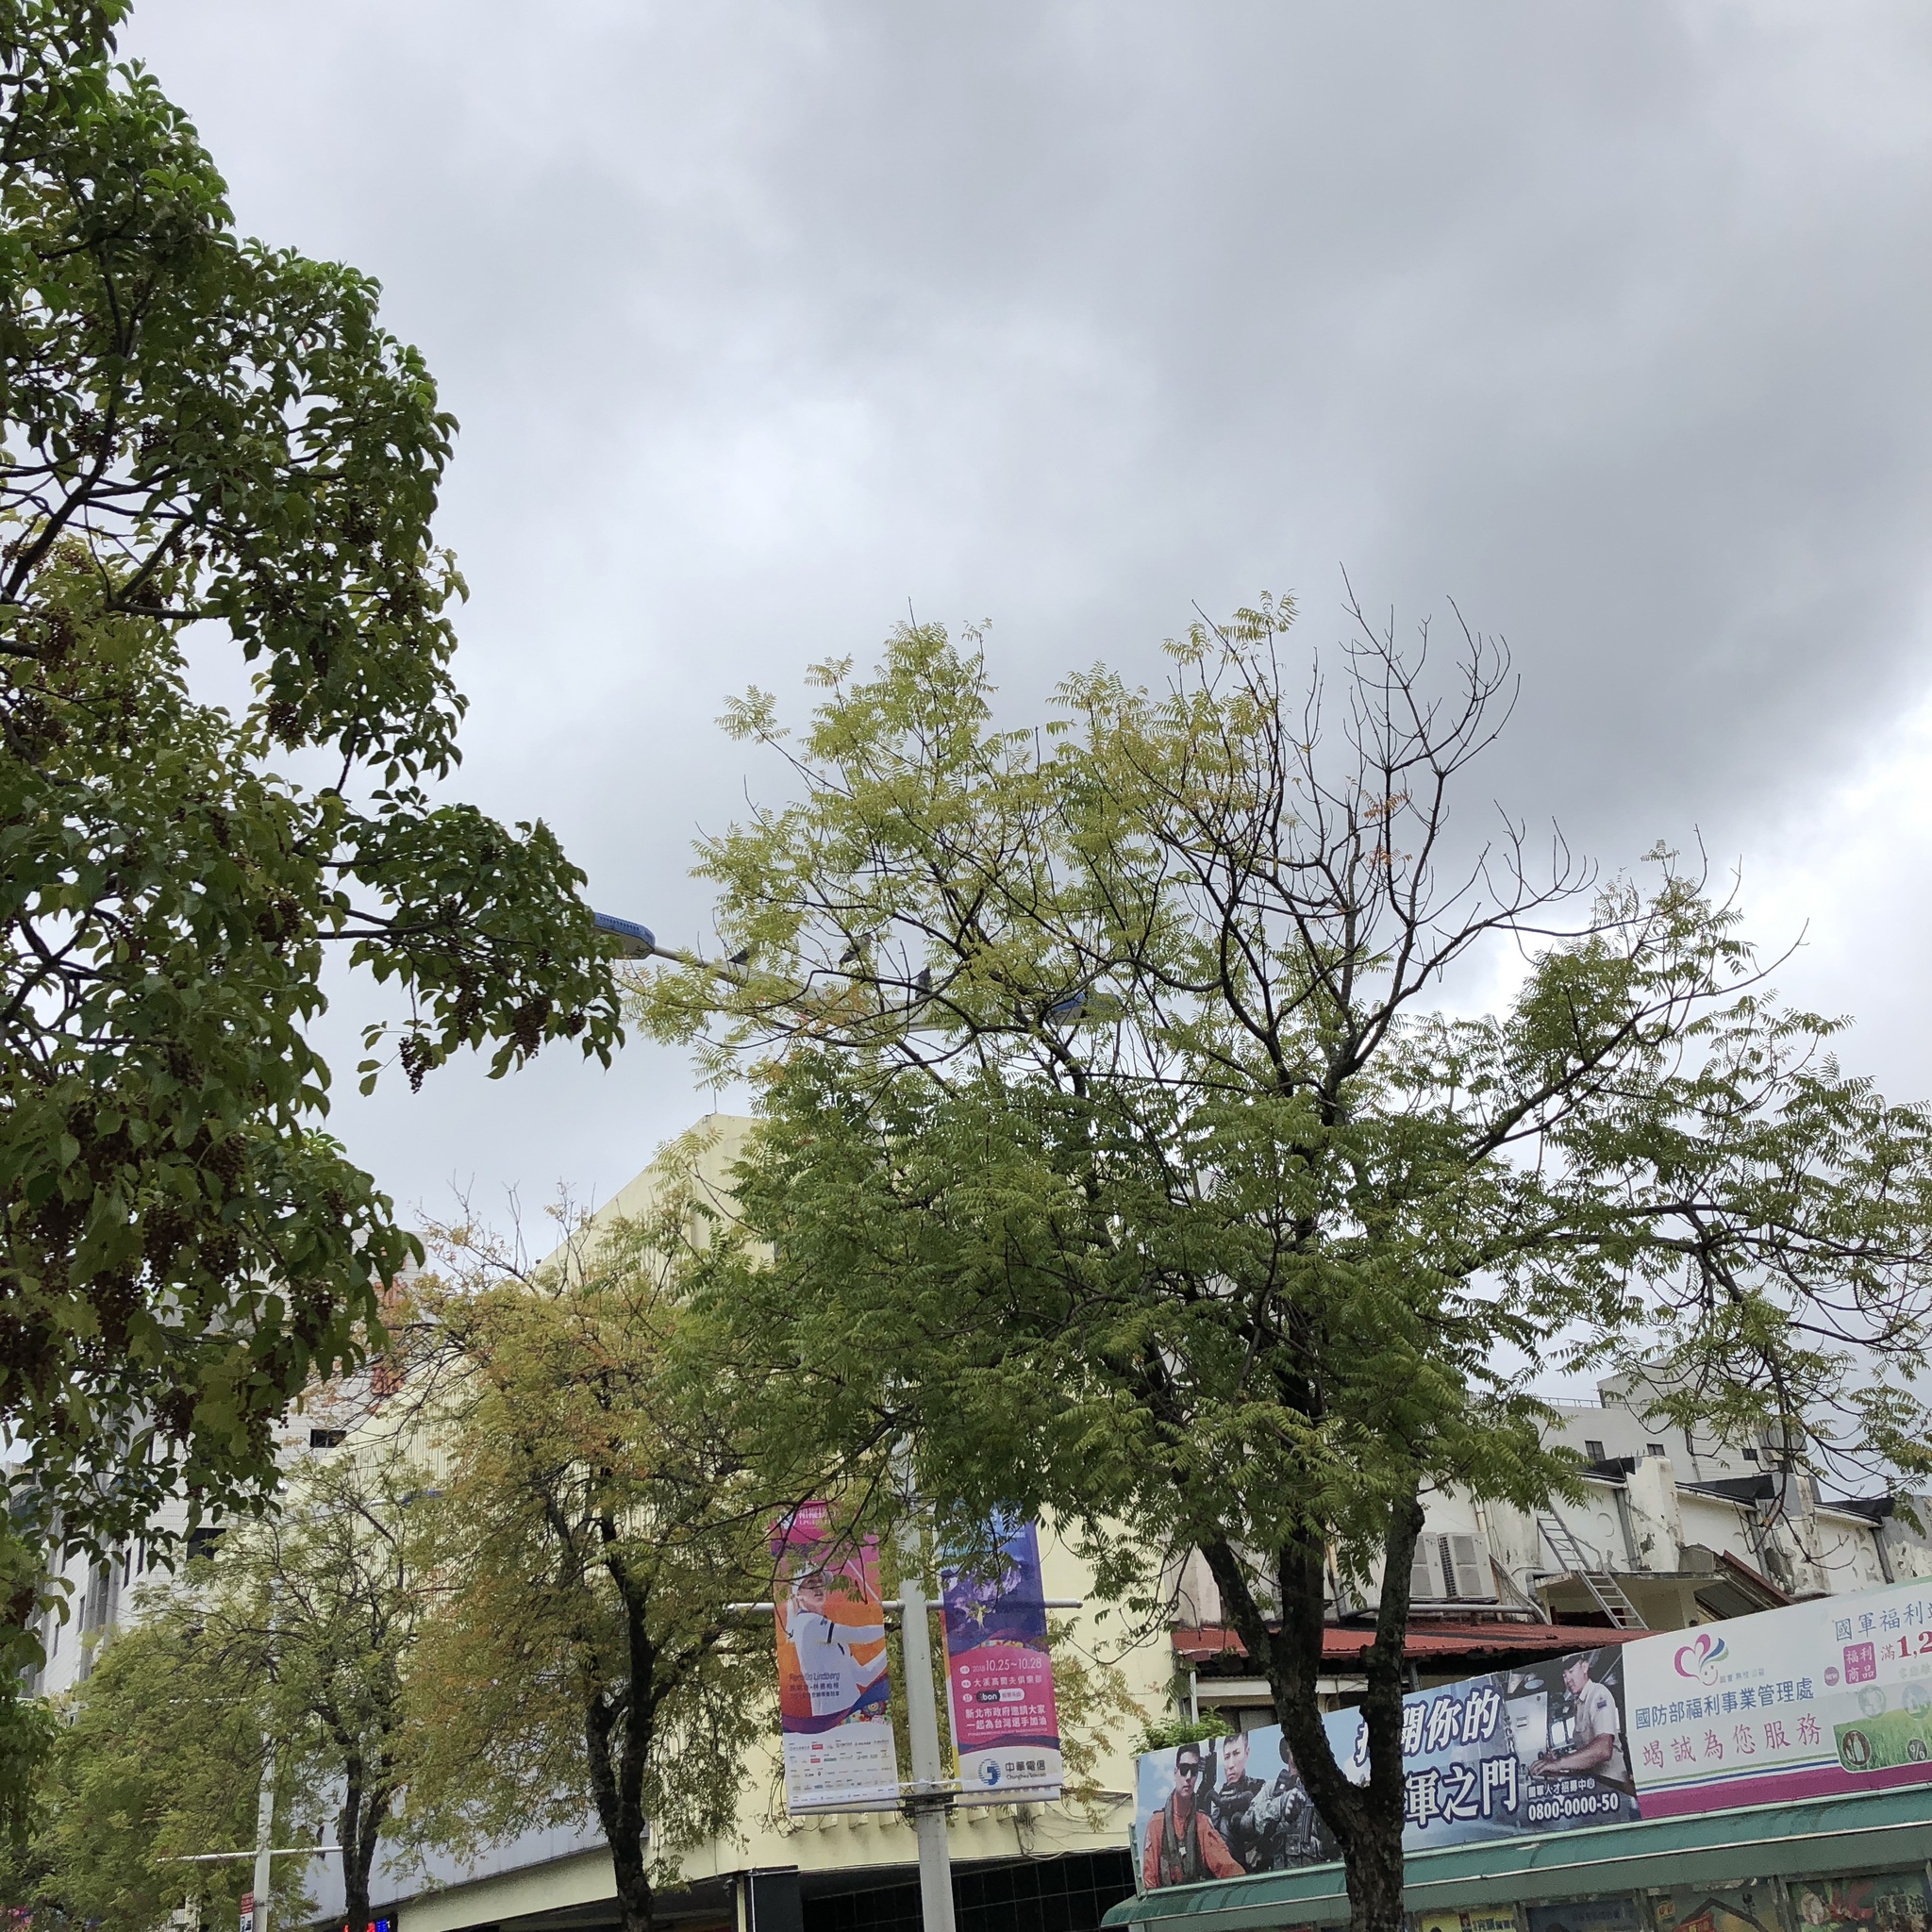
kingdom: Animalia
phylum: Chordata
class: Aves
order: Columbiformes
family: Columbidae
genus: Columba
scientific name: Columba livia
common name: Rock pigeon
